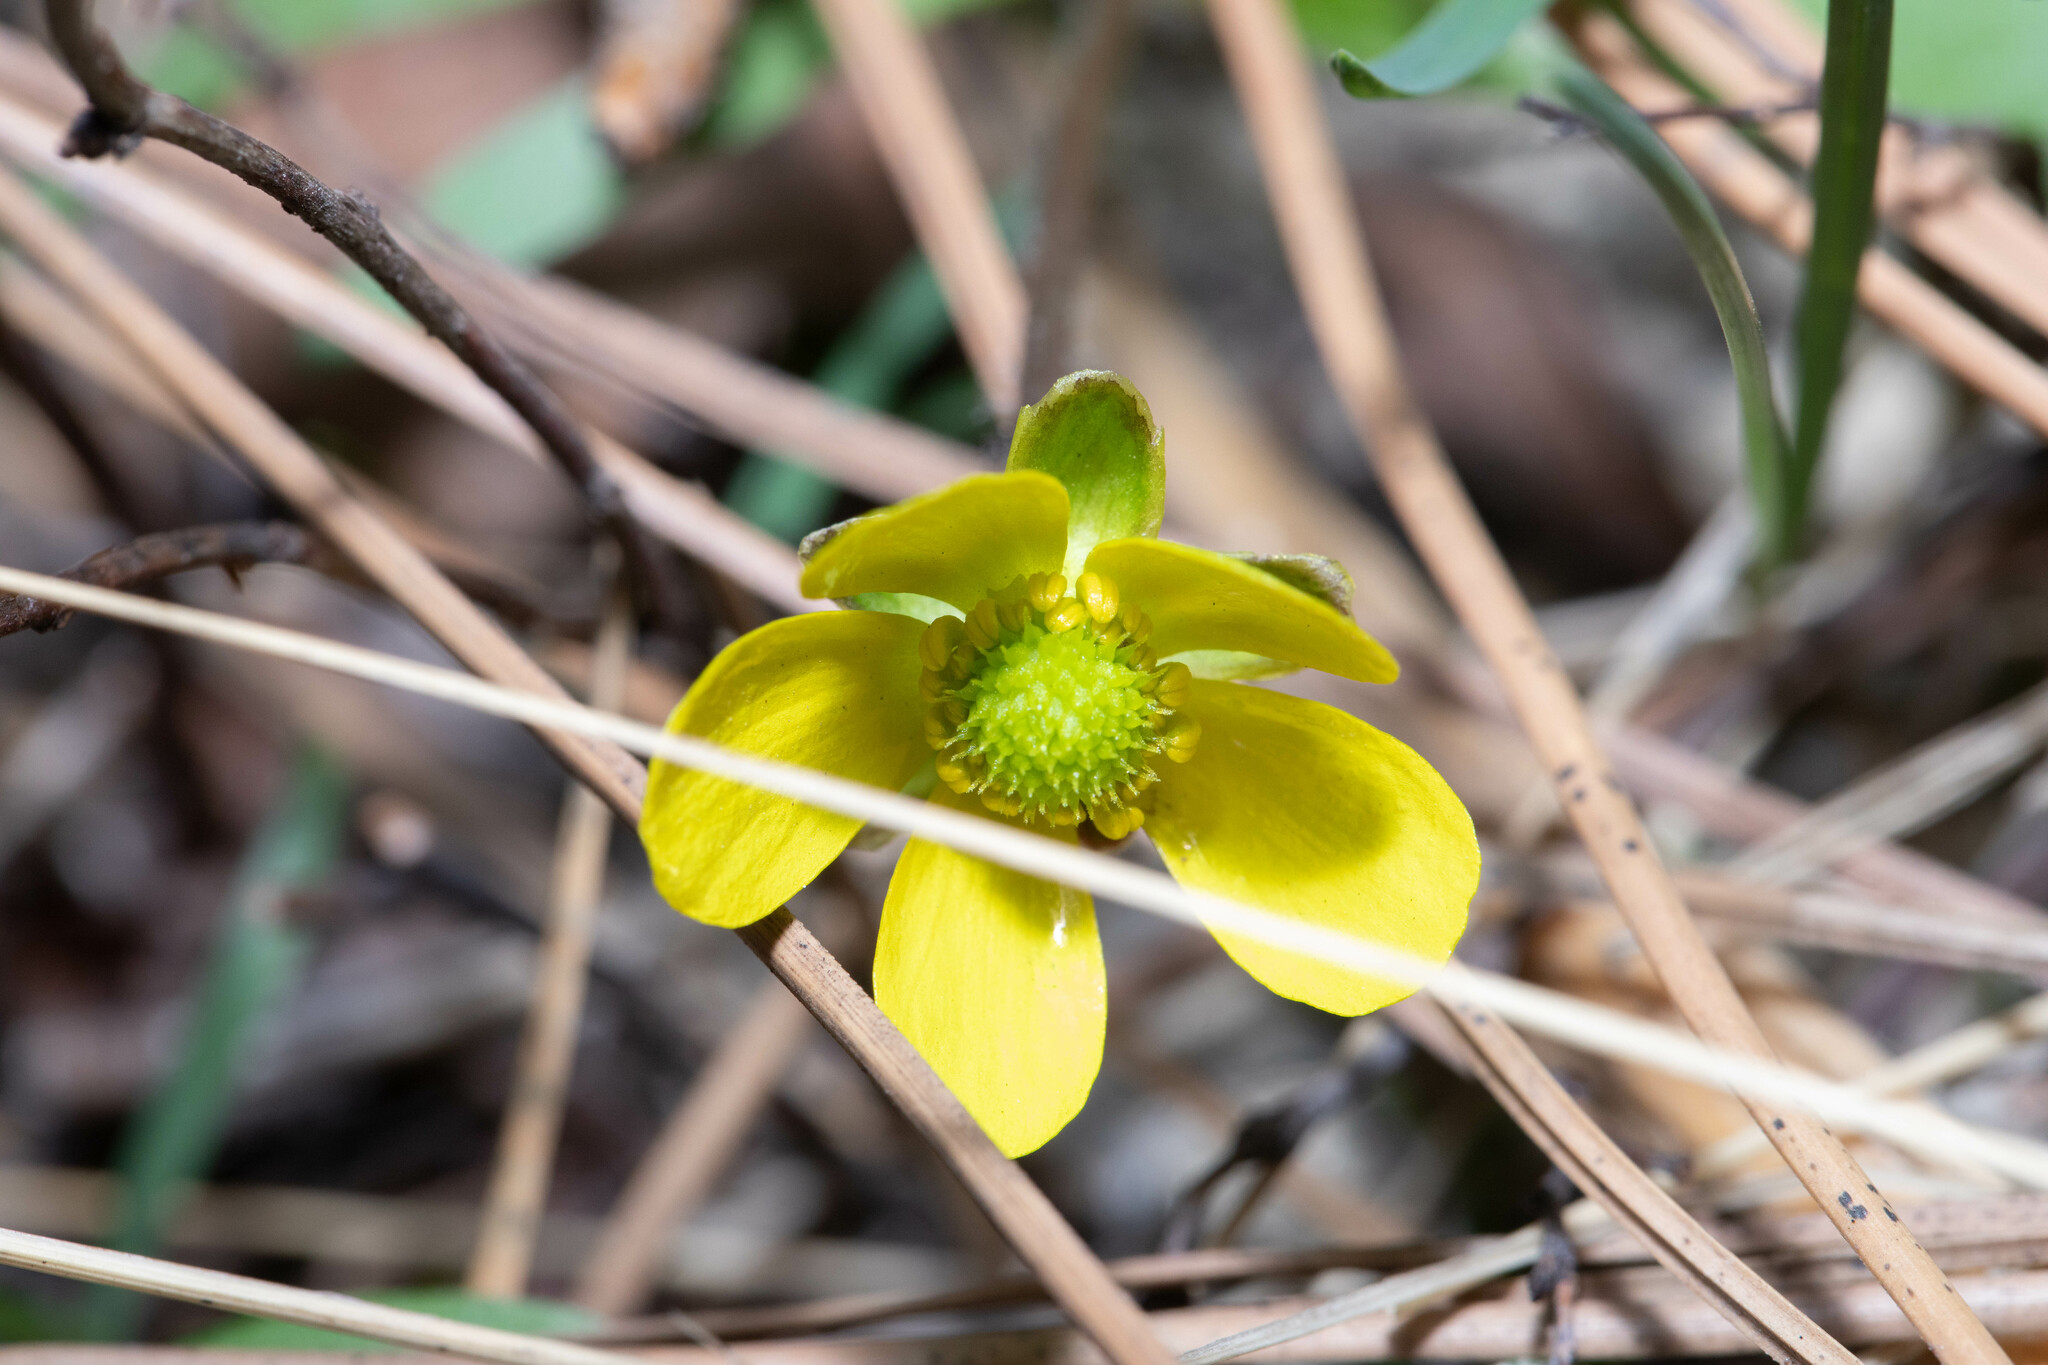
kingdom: Plantae
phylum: Tracheophyta
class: Magnoliopsida
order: Ranunculales
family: Ranunculaceae
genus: Ranunculus
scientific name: Ranunculus glaberrimus
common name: Sagebrush buttercup
